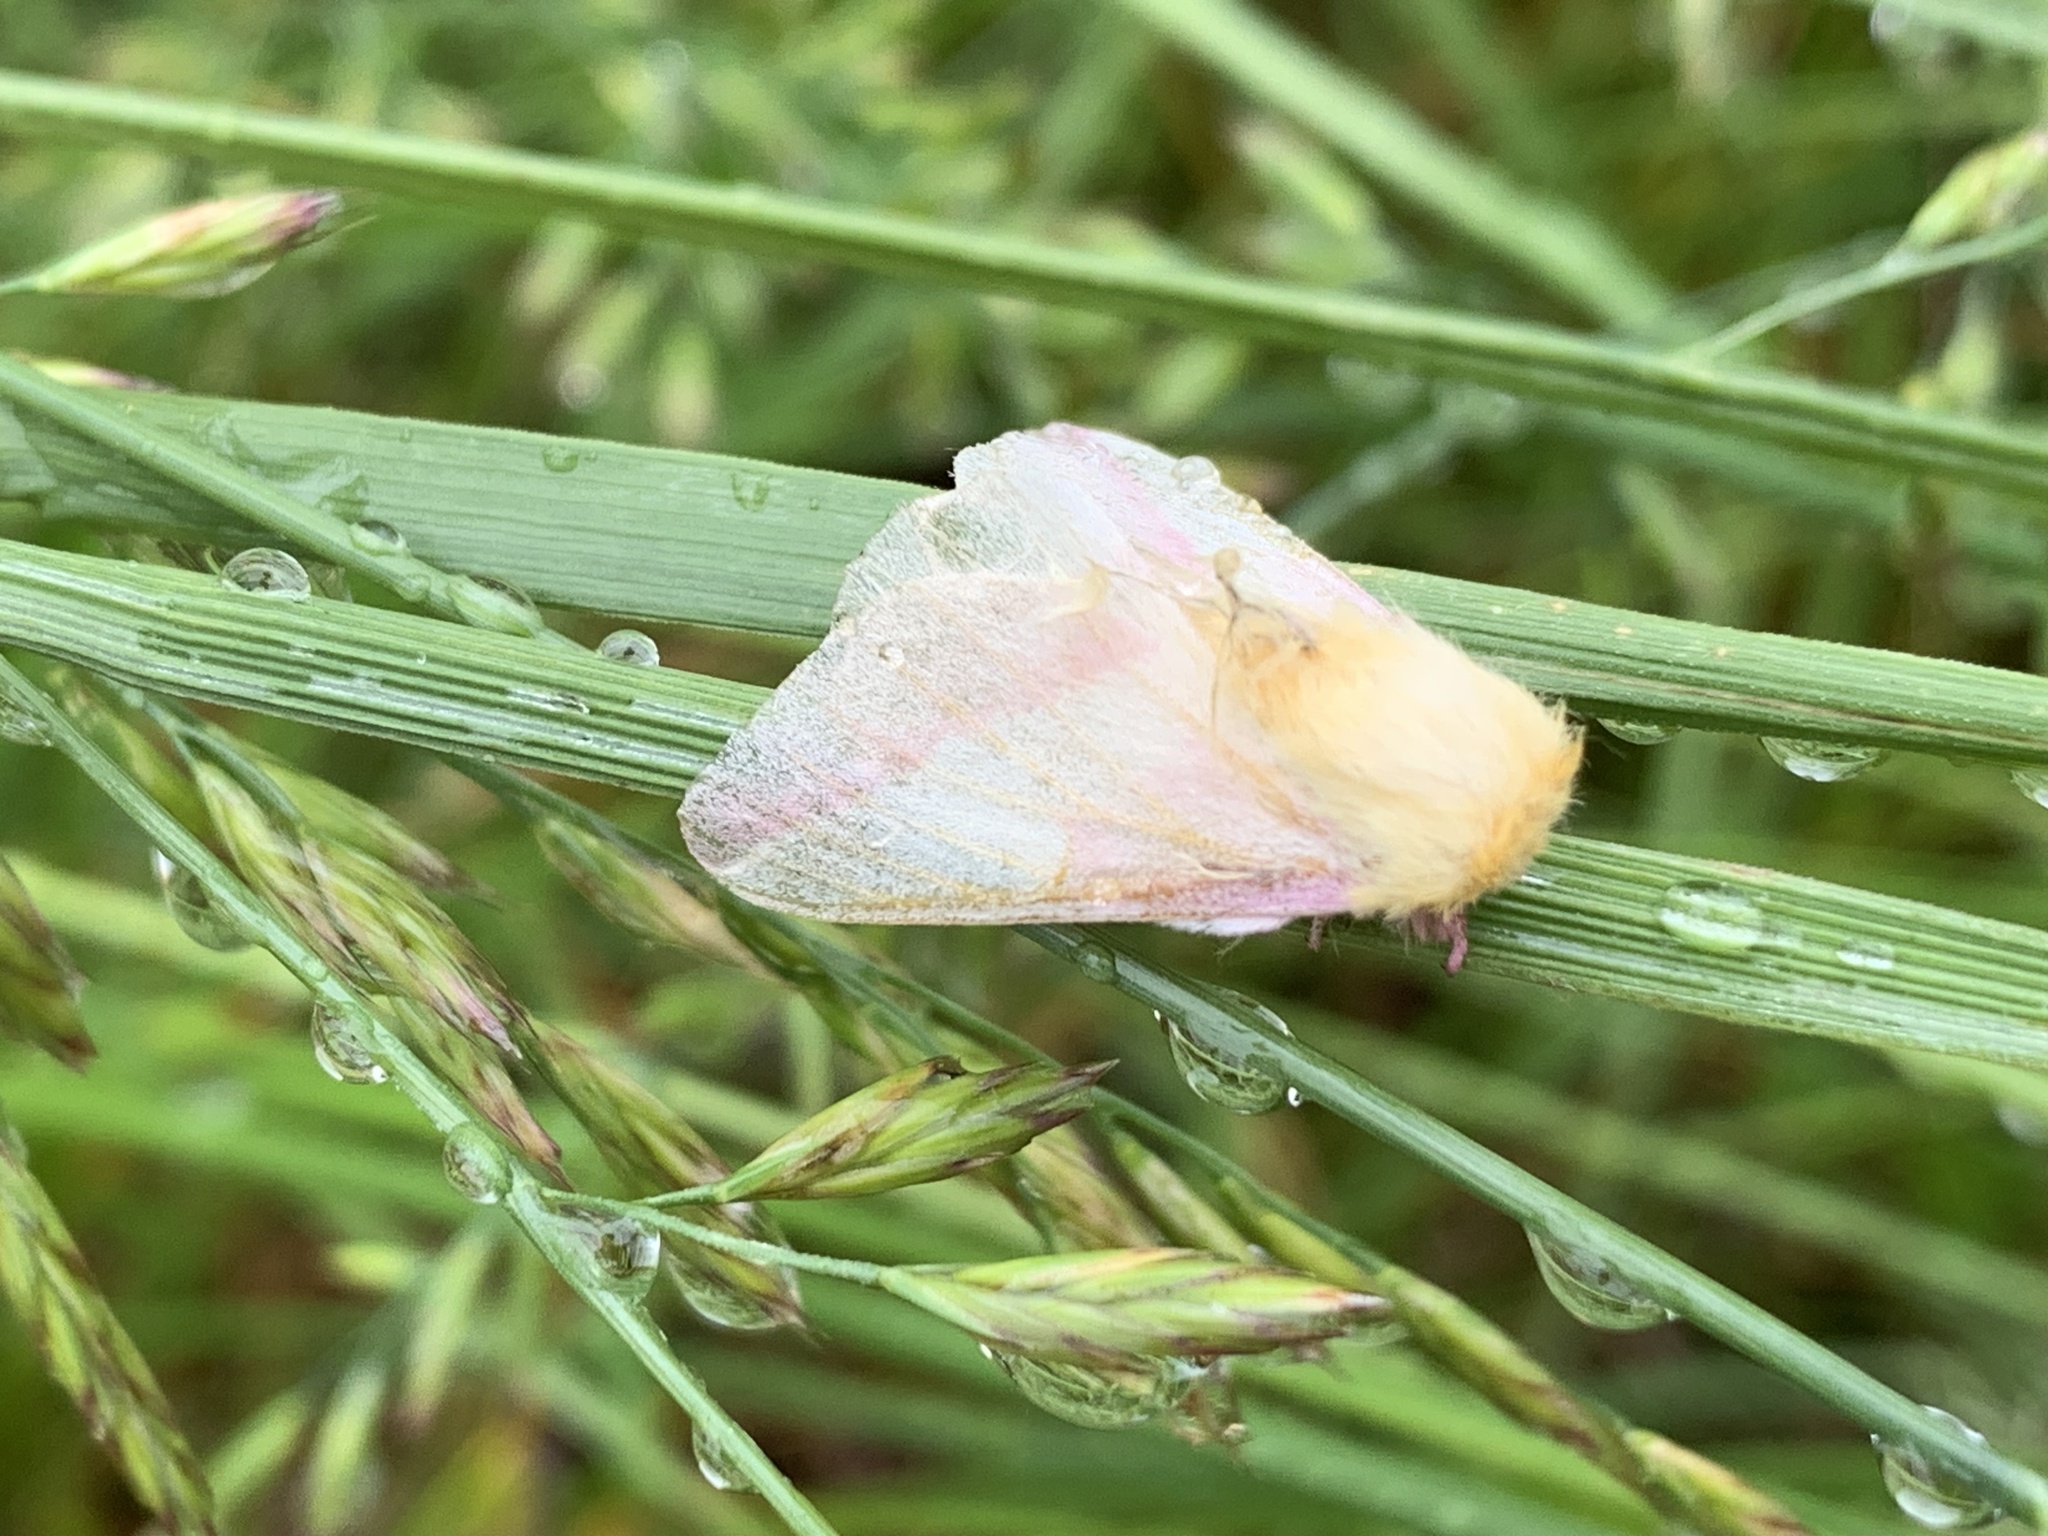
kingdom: Animalia
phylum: Arthropoda
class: Insecta
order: Lepidoptera
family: Saturniidae
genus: Dryocampa
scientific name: Dryocampa rubicunda
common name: Rosy maple moth
